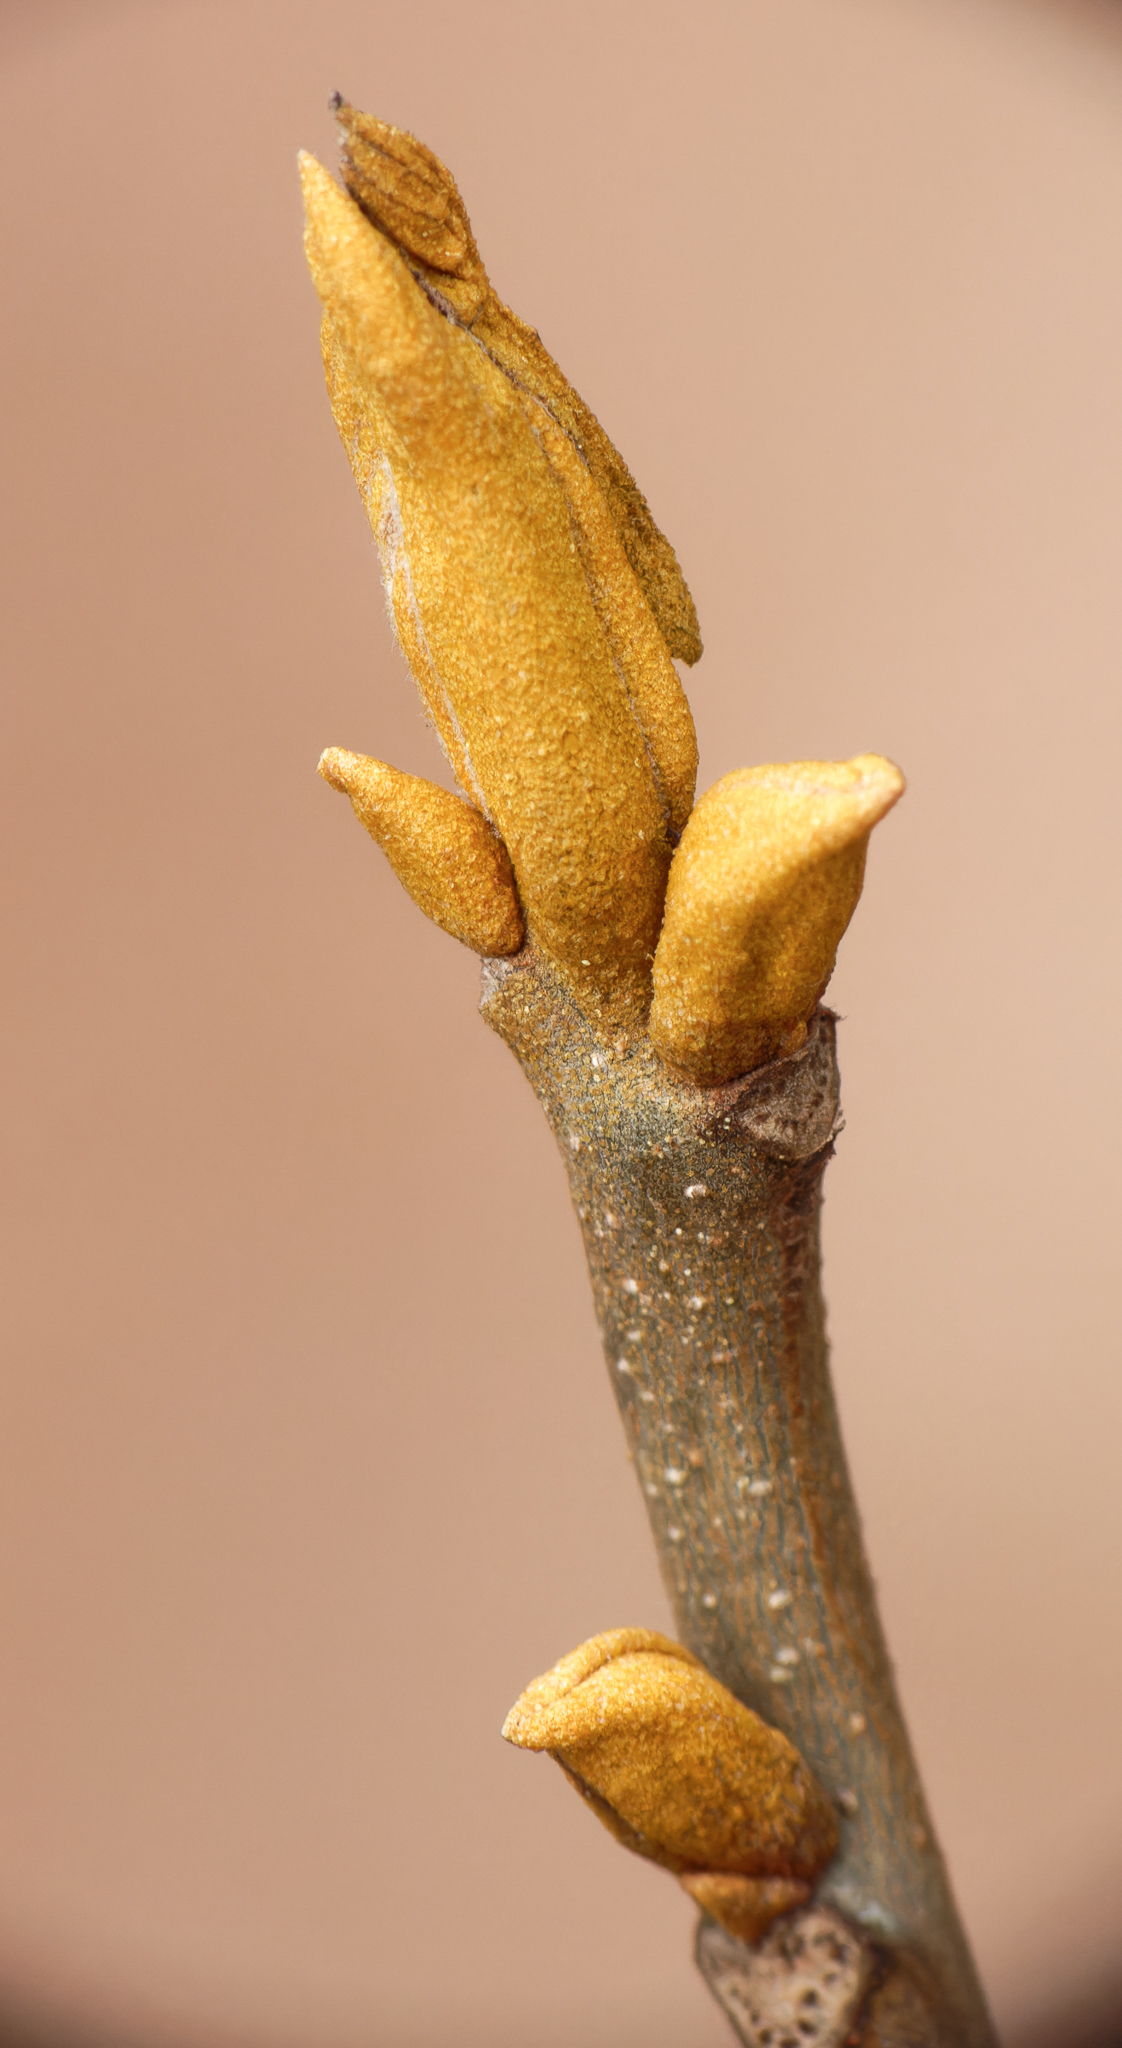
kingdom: Plantae
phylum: Tracheophyta
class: Magnoliopsida
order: Fagales
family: Juglandaceae
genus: Carya
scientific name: Carya cordiformis
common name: Bitternut hickory
